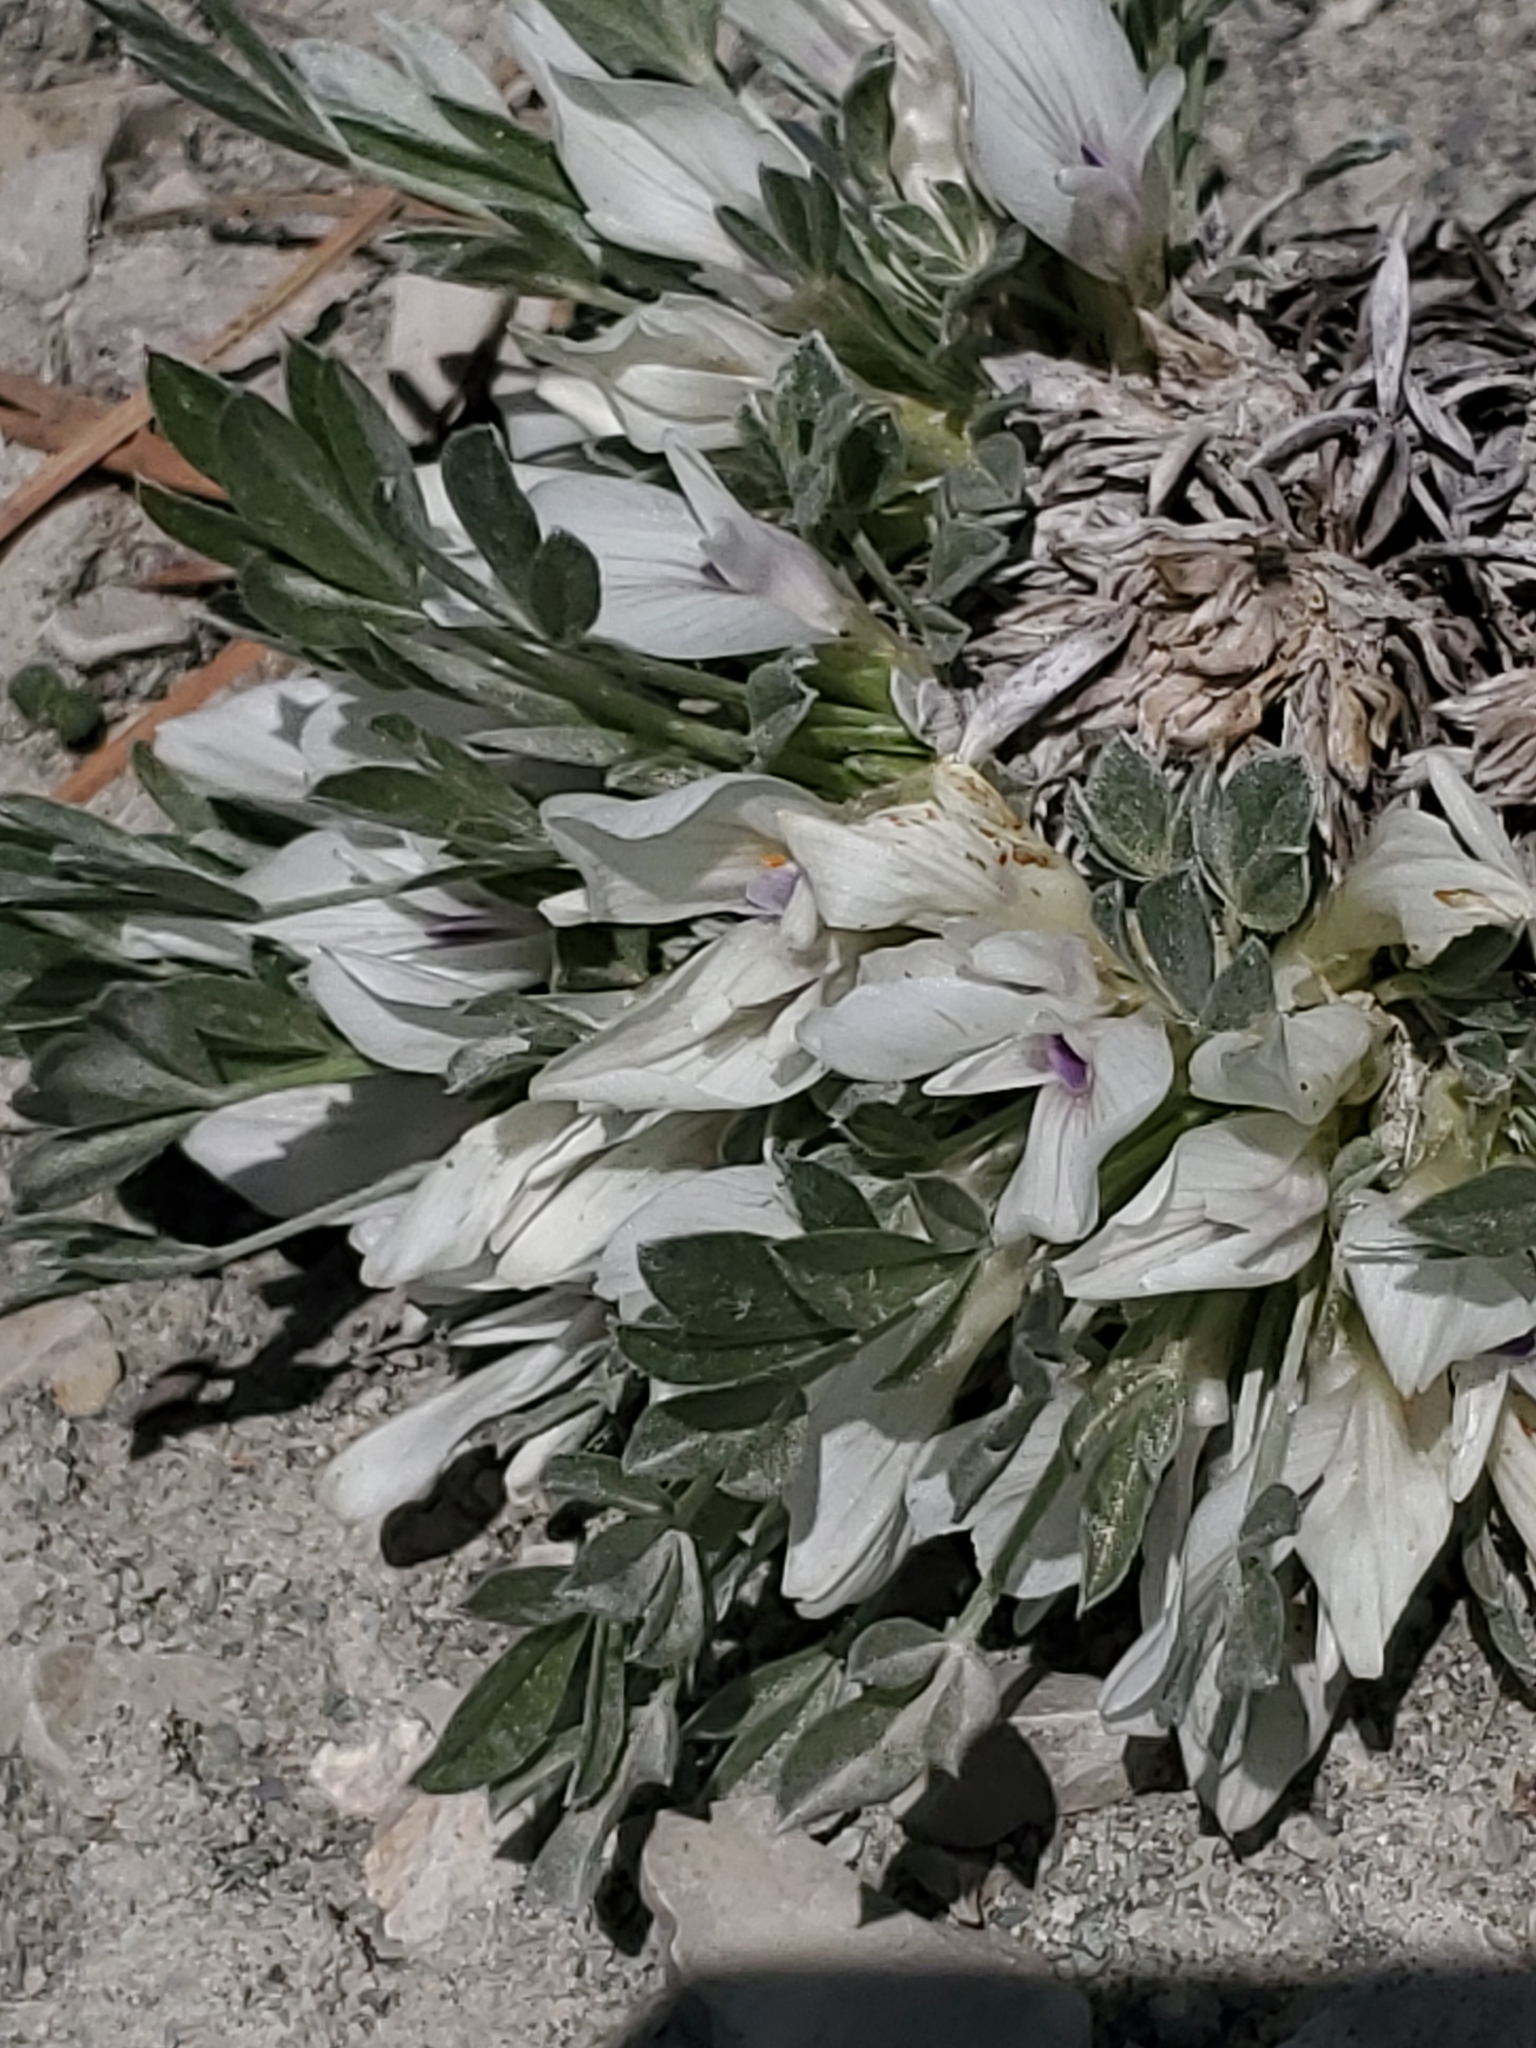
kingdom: Plantae
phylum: Tracheophyta
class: Magnoliopsida
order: Fabales
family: Fabaceae
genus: Astragalus
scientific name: Astragalus gilviflorus
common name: Cushion milk-vetch
